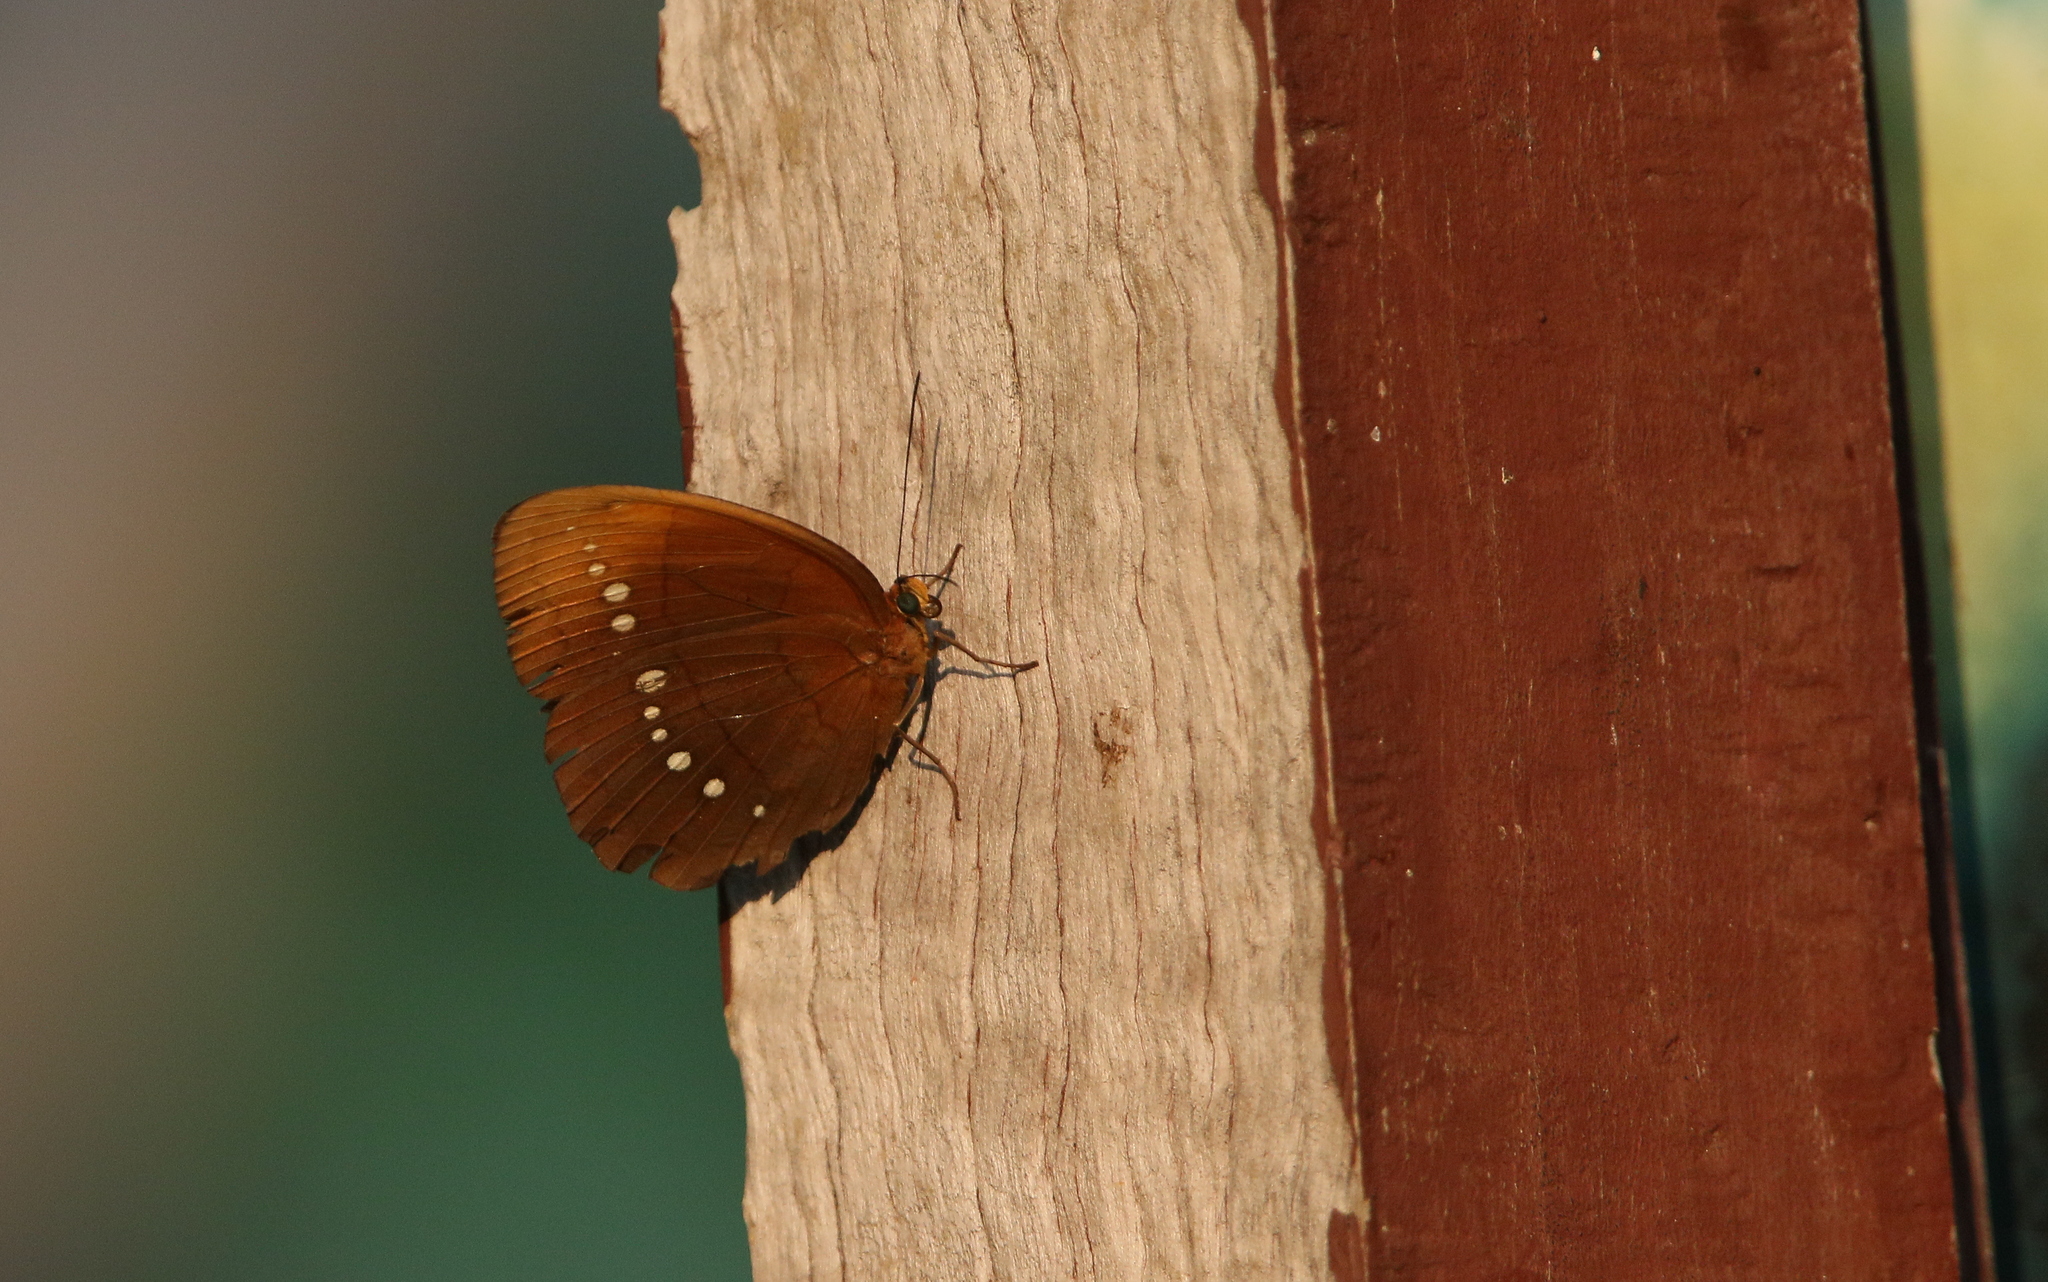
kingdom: Animalia
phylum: Arthropoda
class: Insecta
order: Lepidoptera
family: Nymphalidae
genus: Faunis
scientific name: Faunis eumeus
